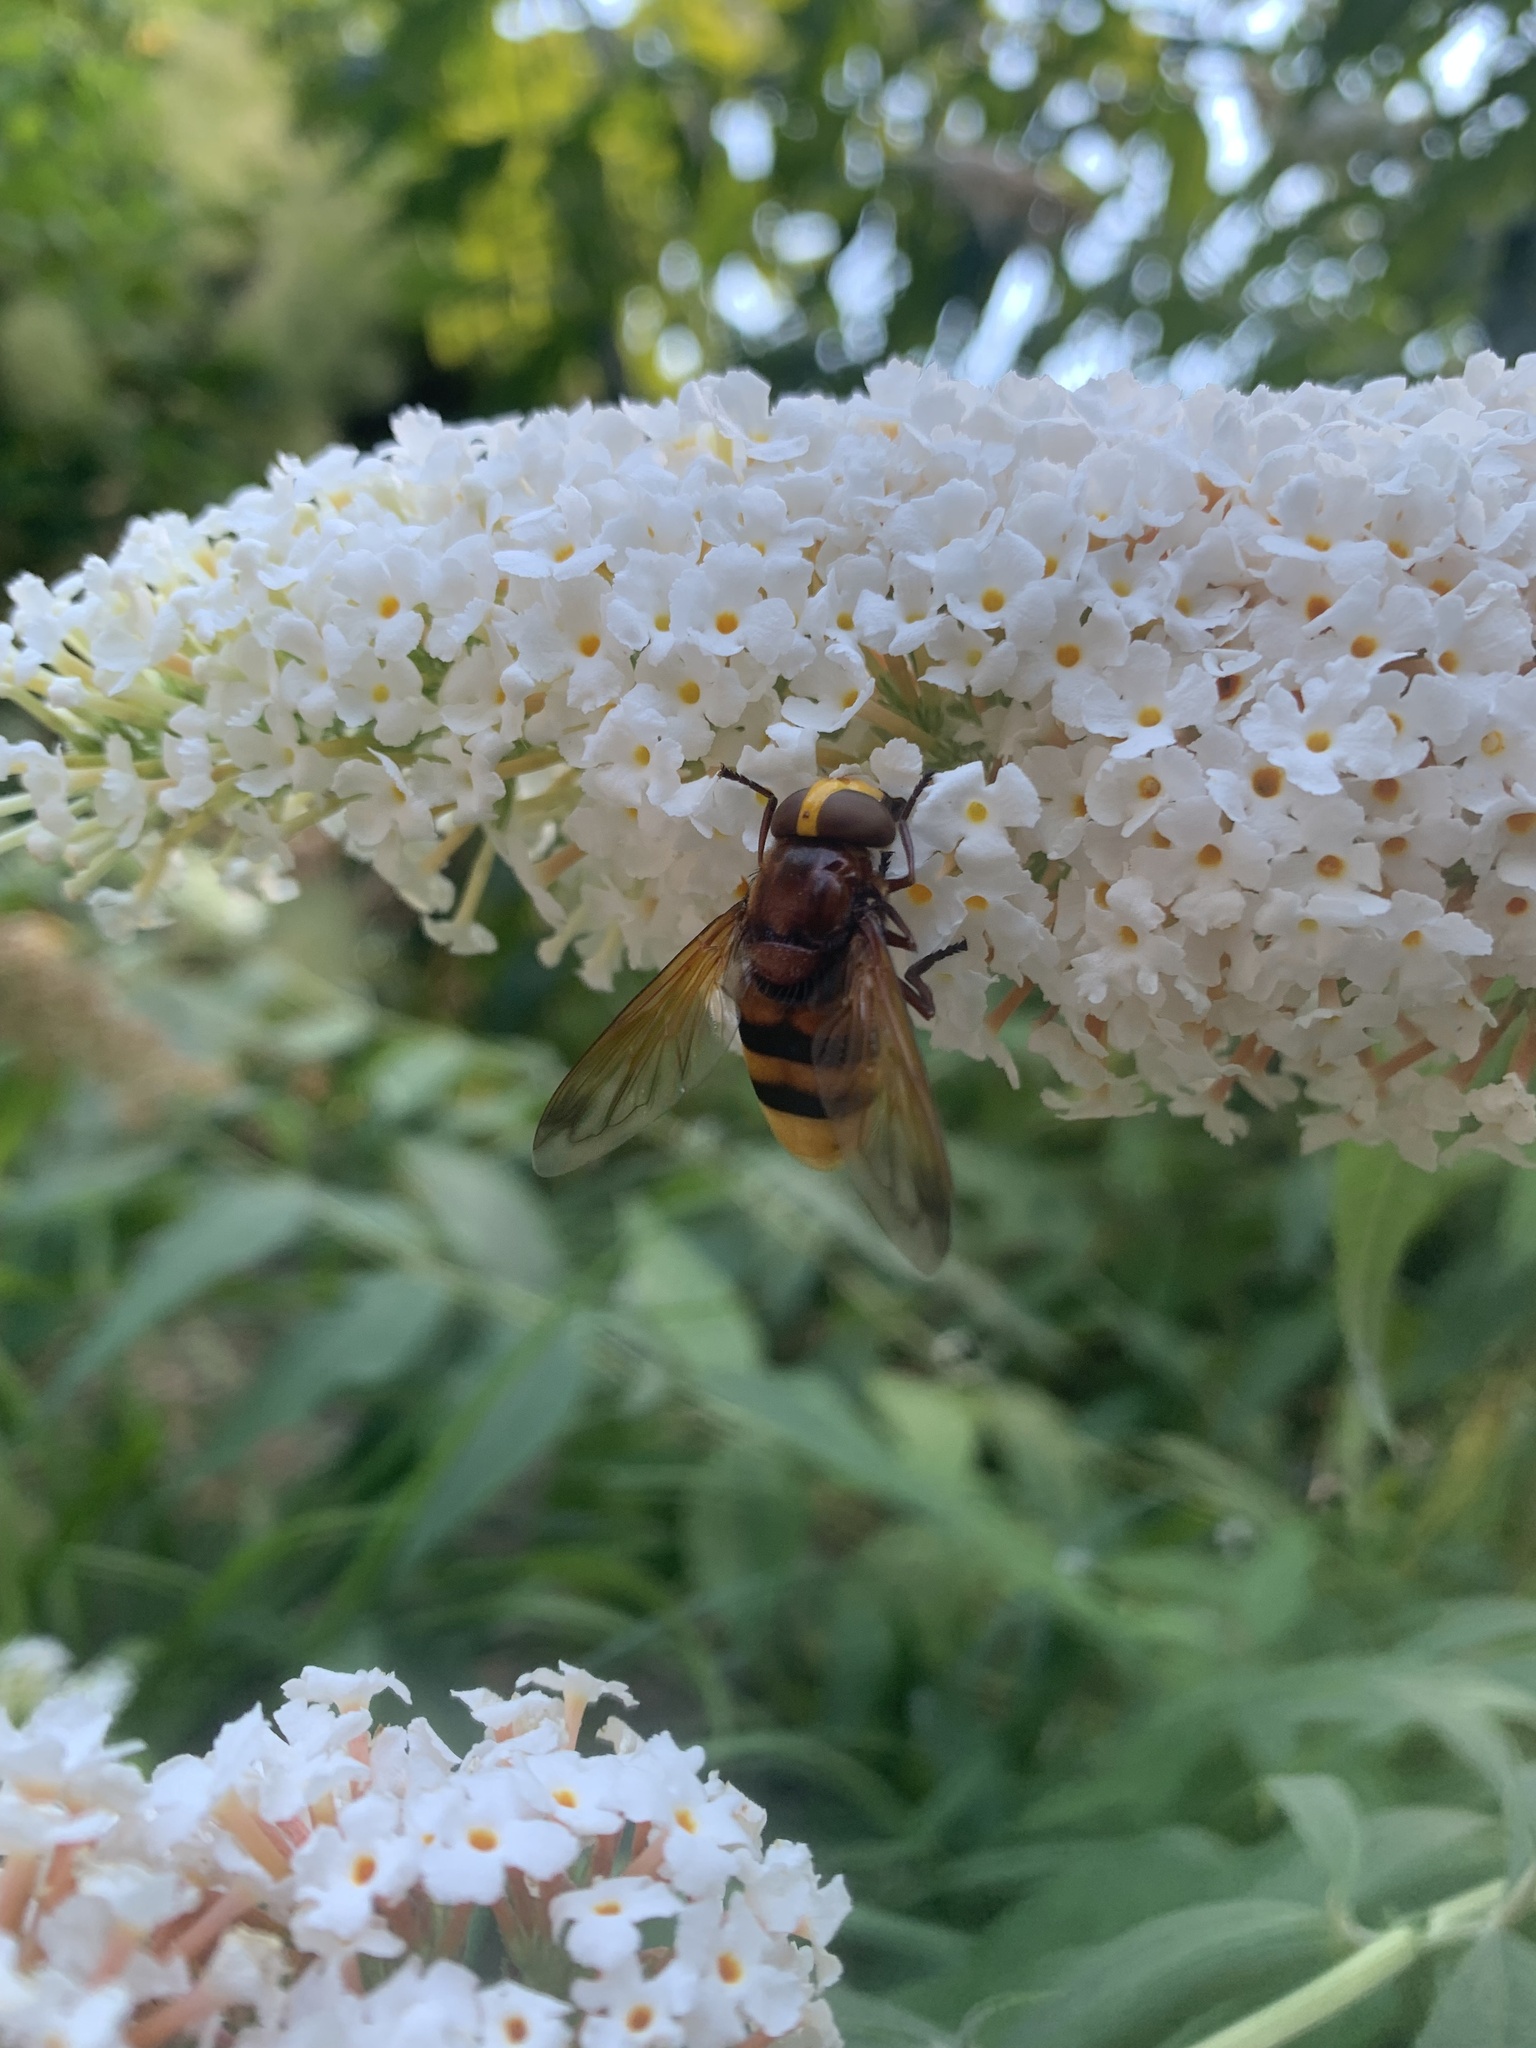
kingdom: Animalia
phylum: Arthropoda
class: Insecta
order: Diptera
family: Syrphidae
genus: Volucella
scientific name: Volucella zonaria
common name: Hornet hoverfly
